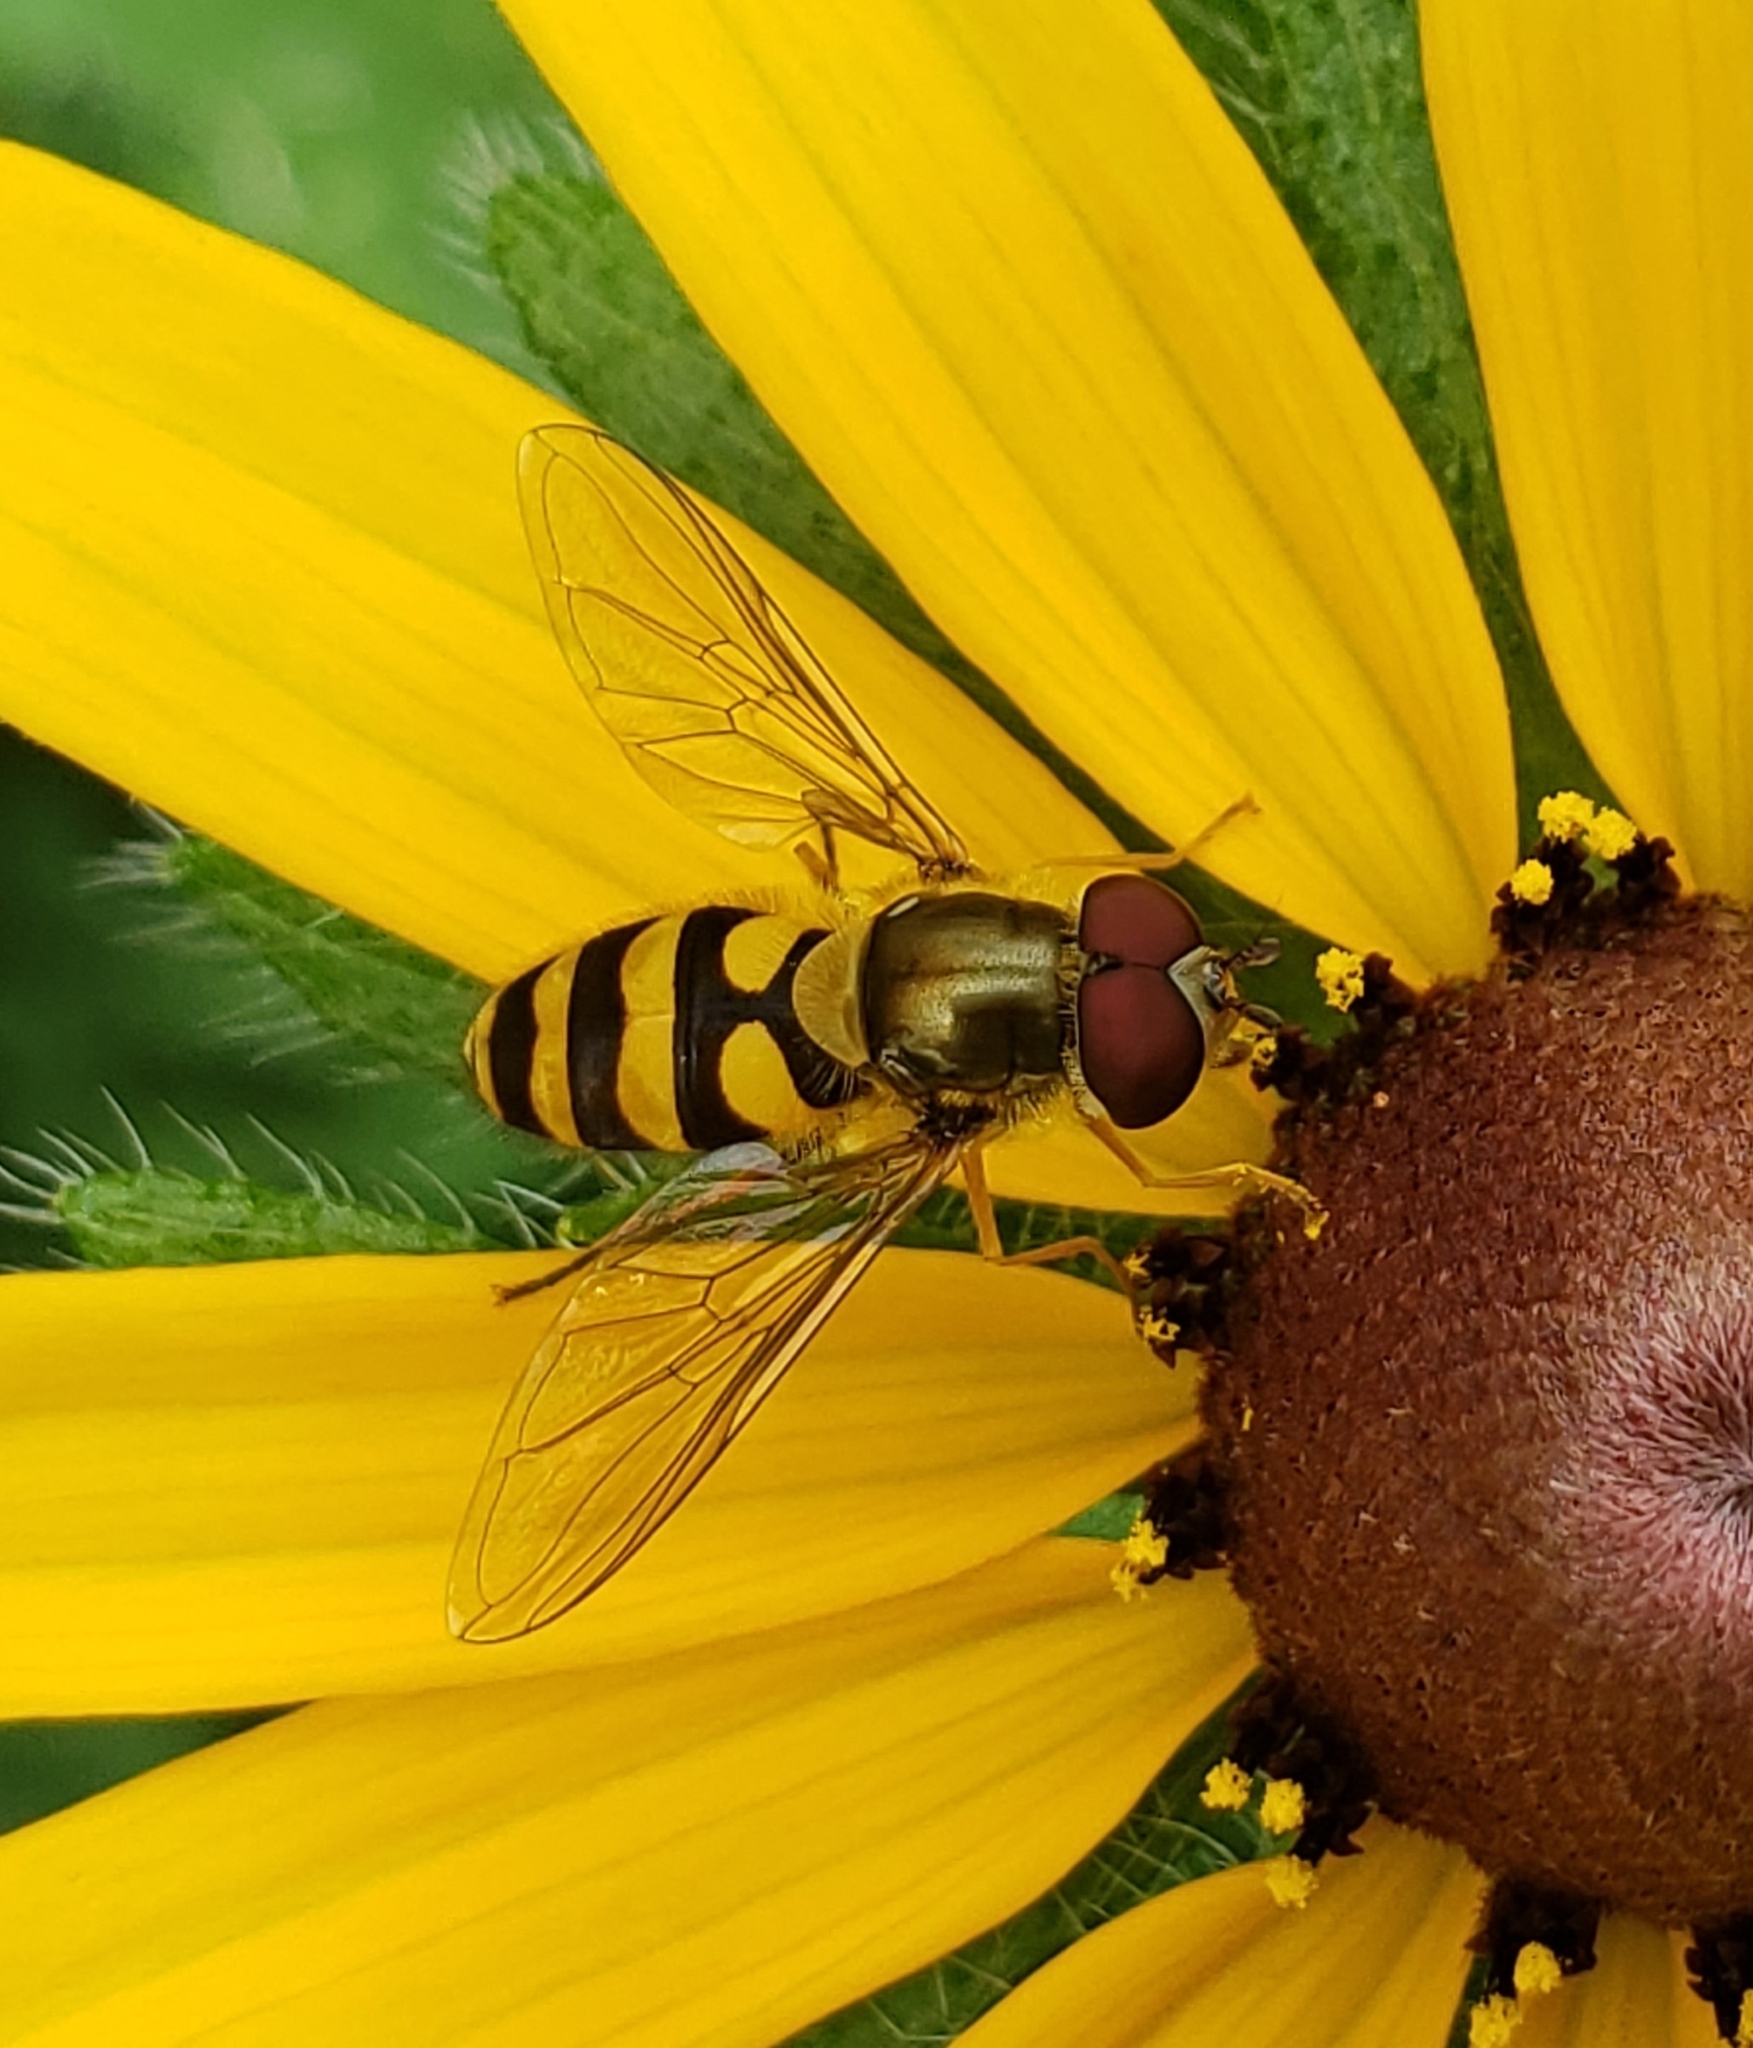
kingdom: Animalia
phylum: Arthropoda
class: Insecta
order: Diptera
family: Syrphidae
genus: Syrphus
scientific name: Syrphus
